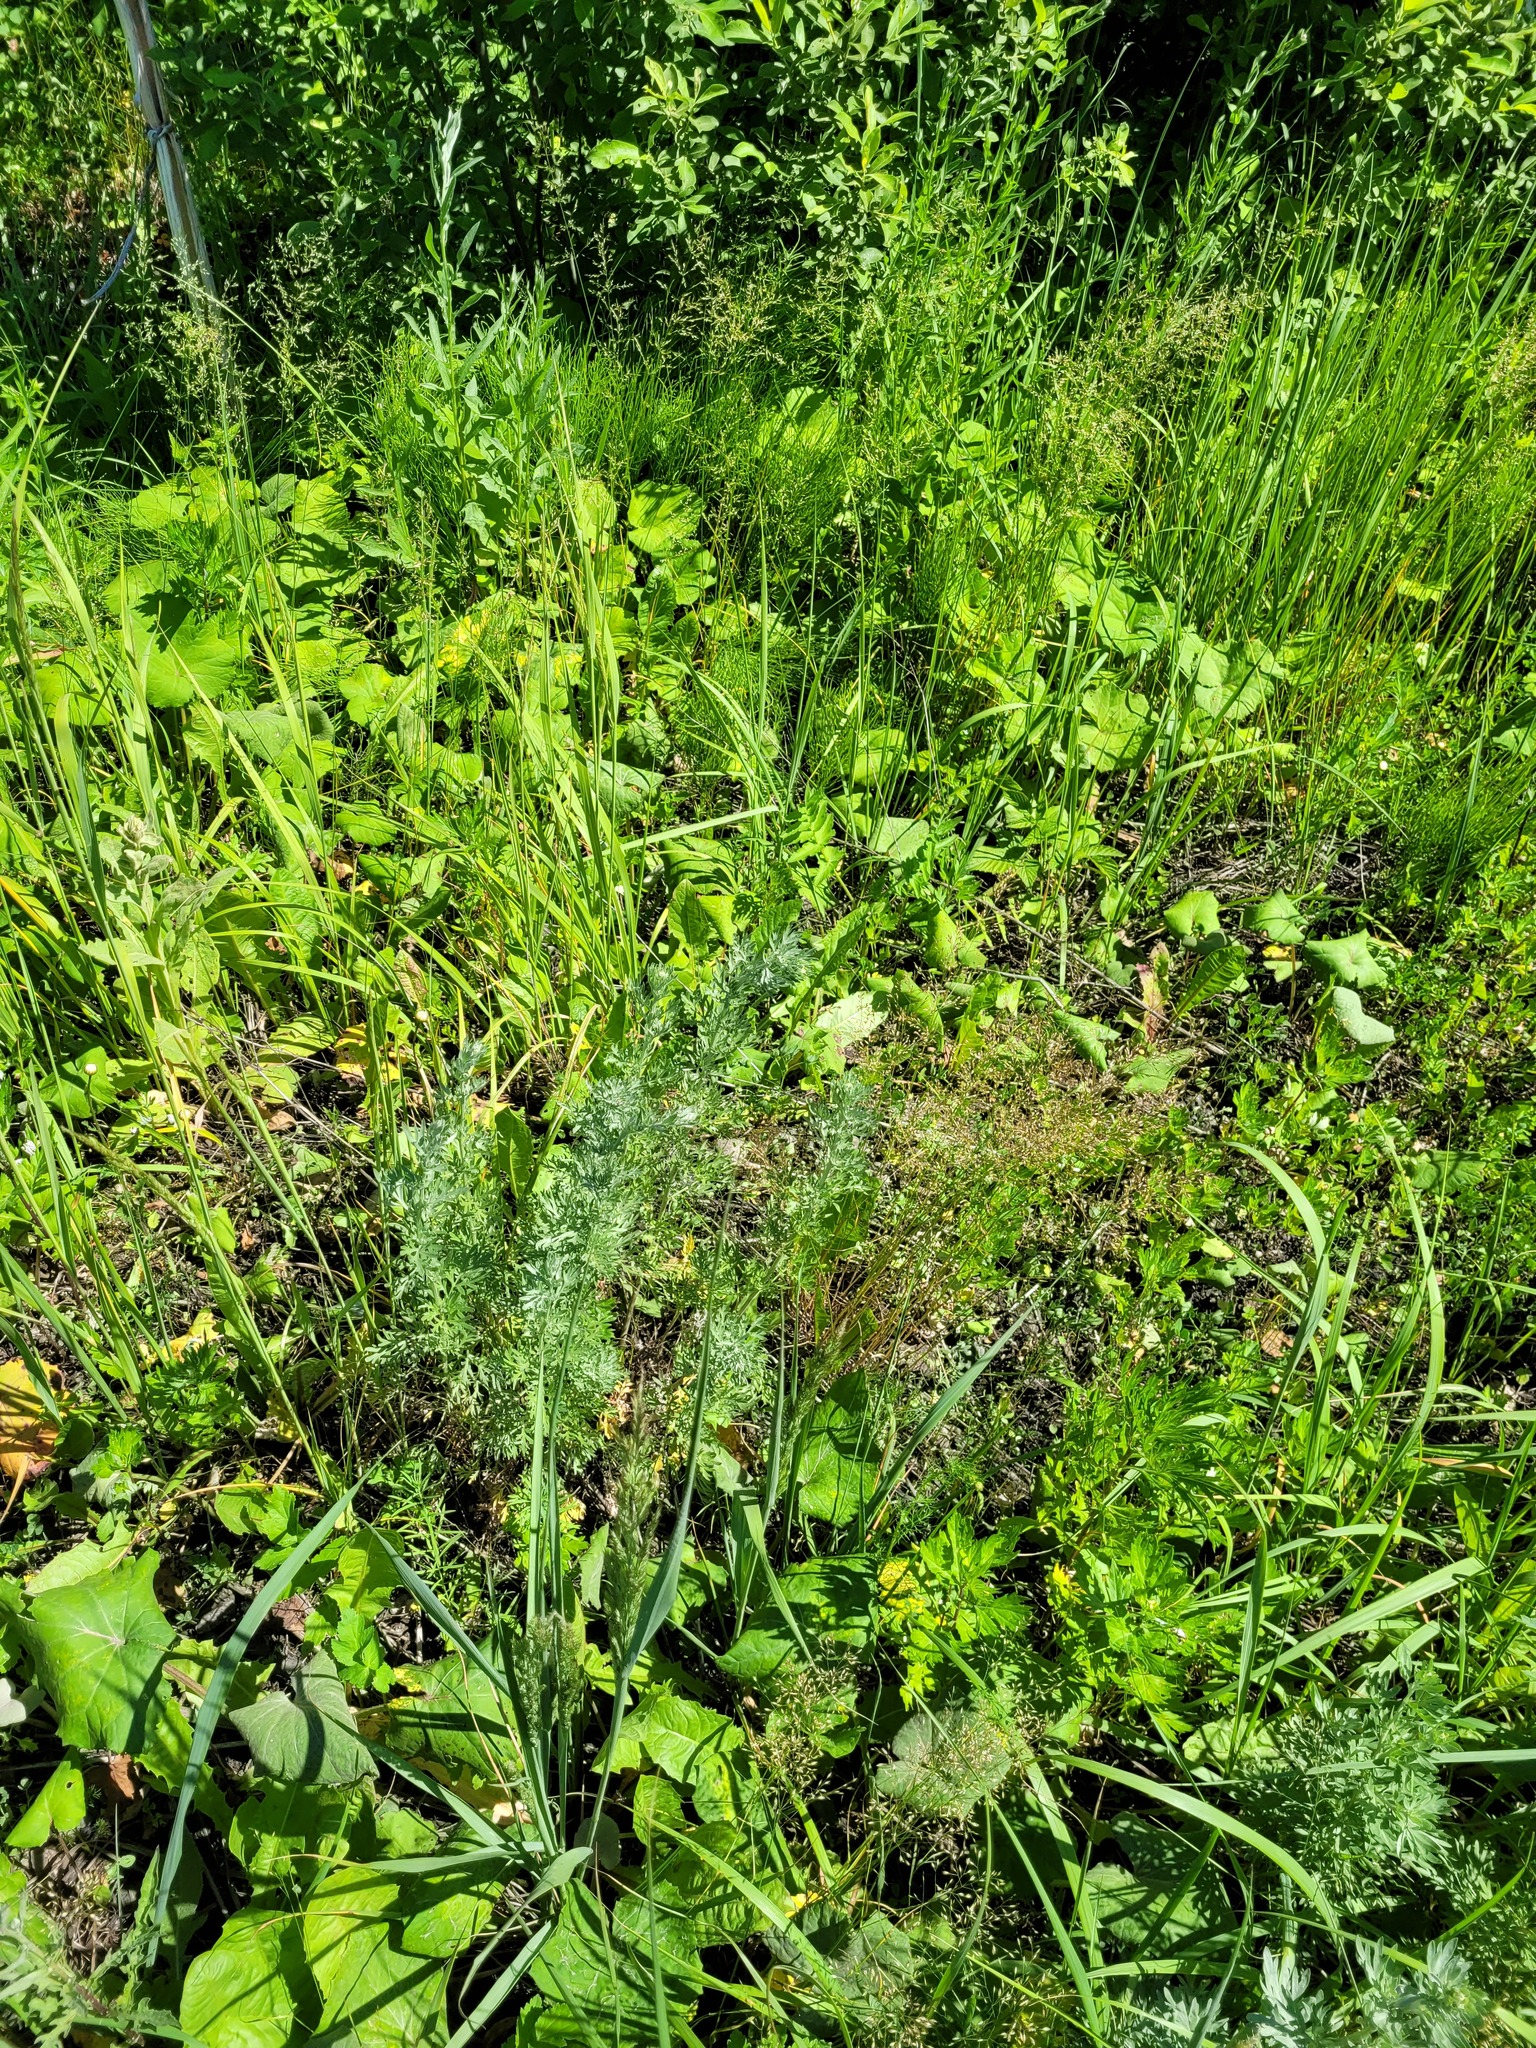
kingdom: Plantae
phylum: Tracheophyta
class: Magnoliopsida
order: Asterales
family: Asteraceae
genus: Artemisia
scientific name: Artemisia absinthium
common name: Wormwood
